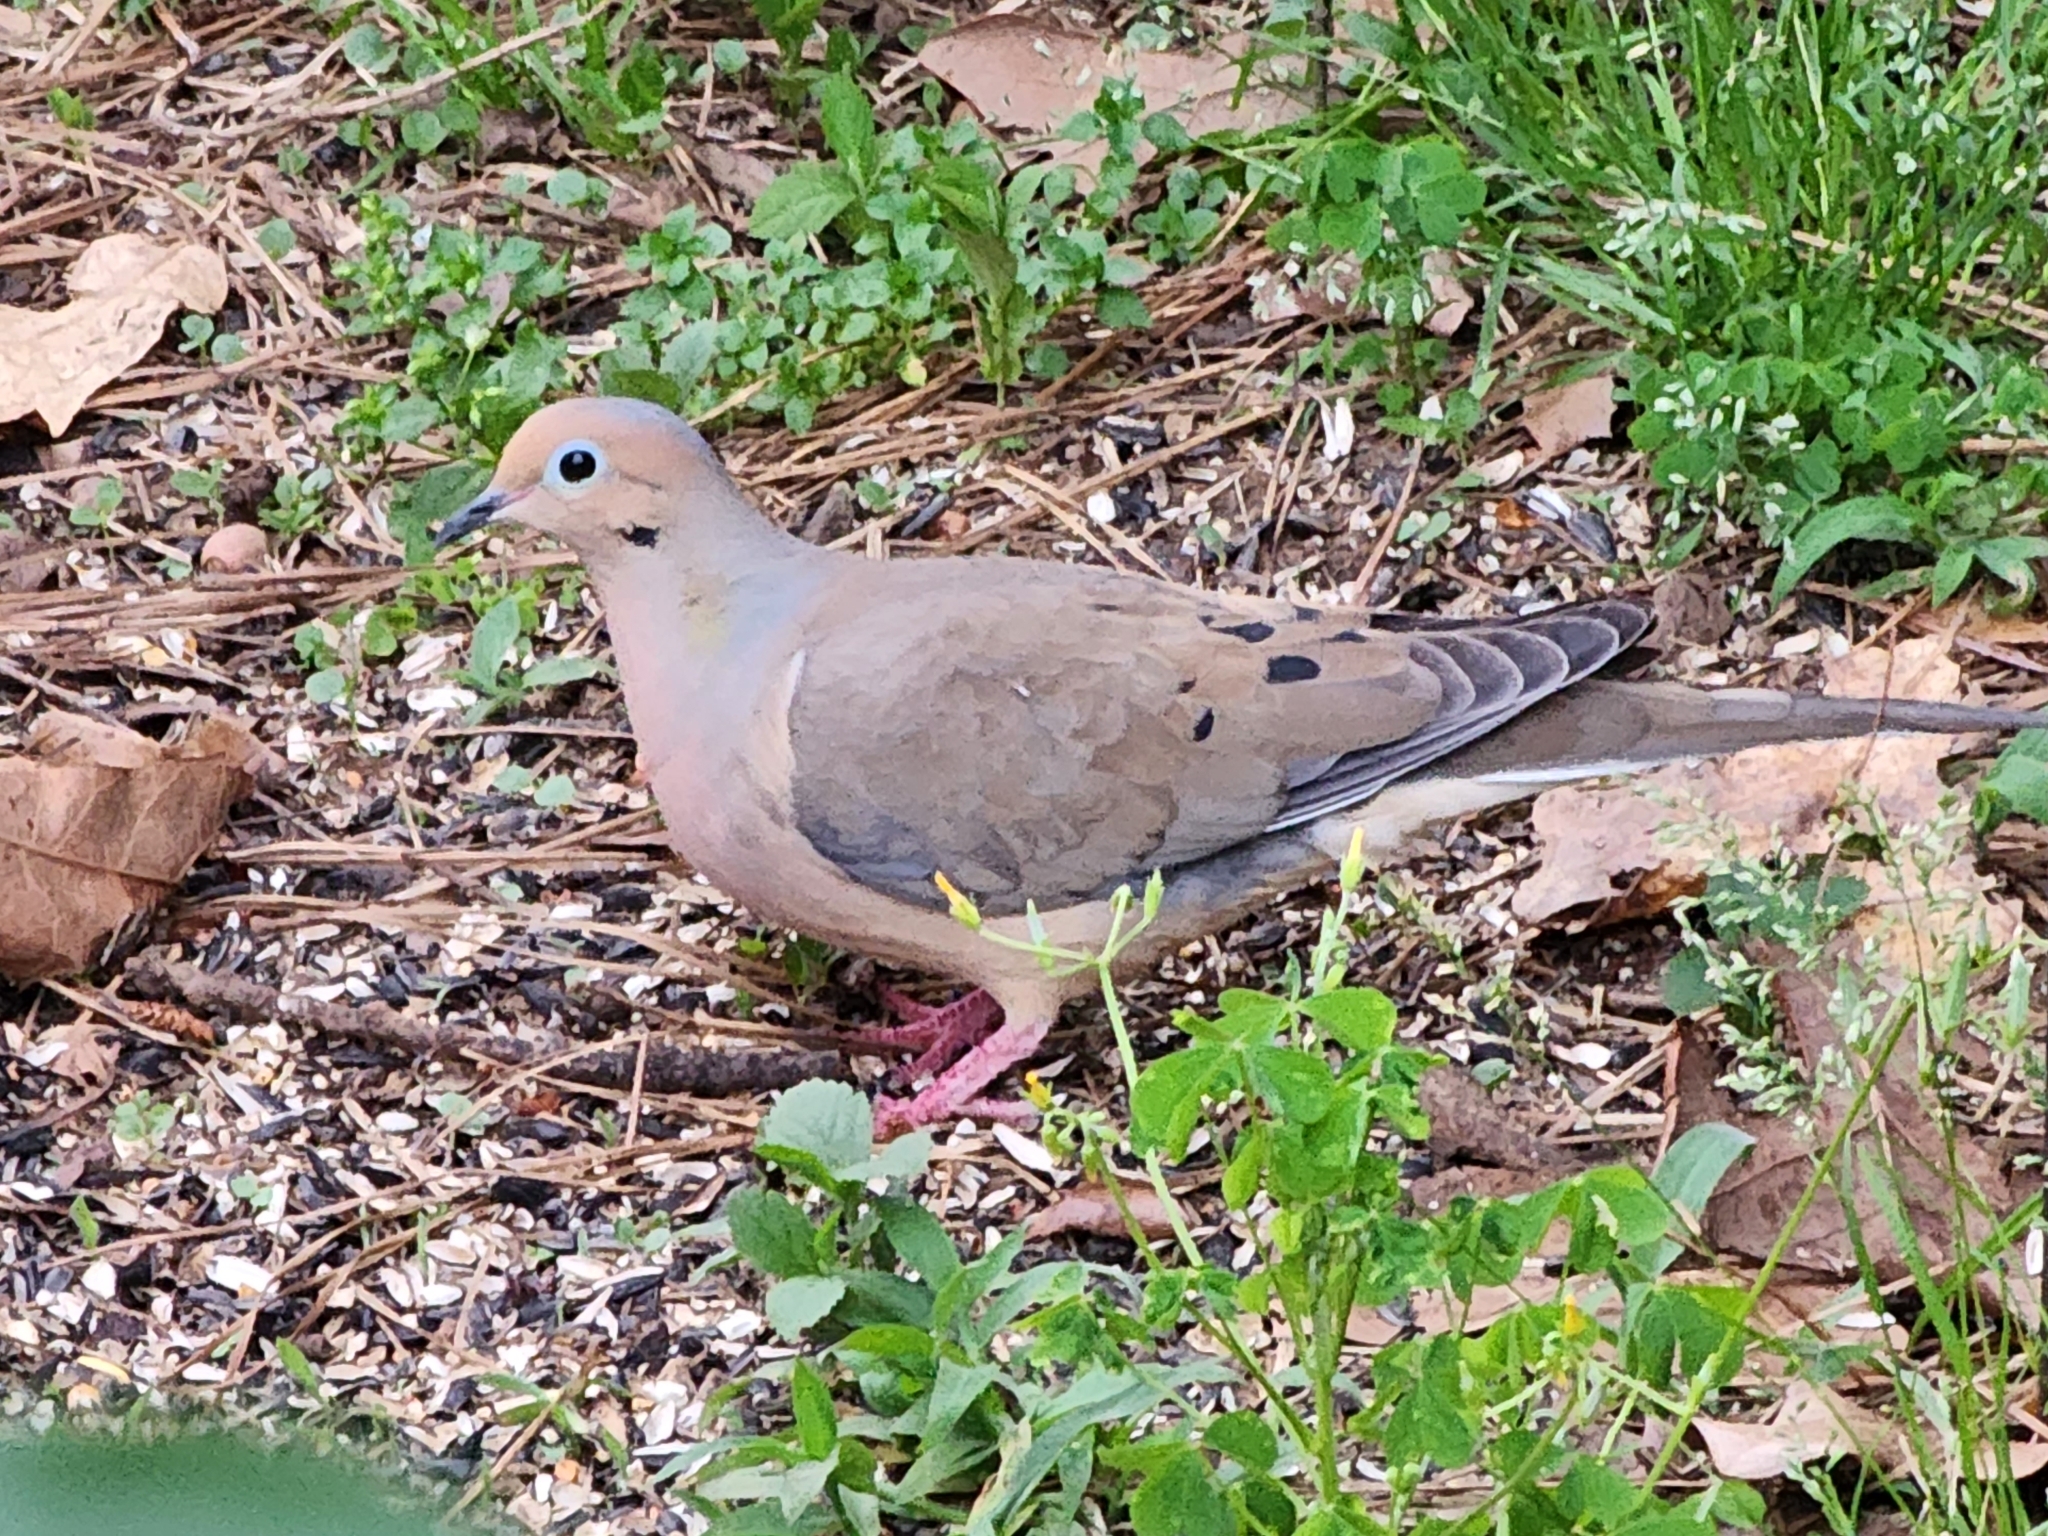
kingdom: Animalia
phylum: Chordata
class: Aves
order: Columbiformes
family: Columbidae
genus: Zenaida
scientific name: Zenaida macroura
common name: Mourning dove
